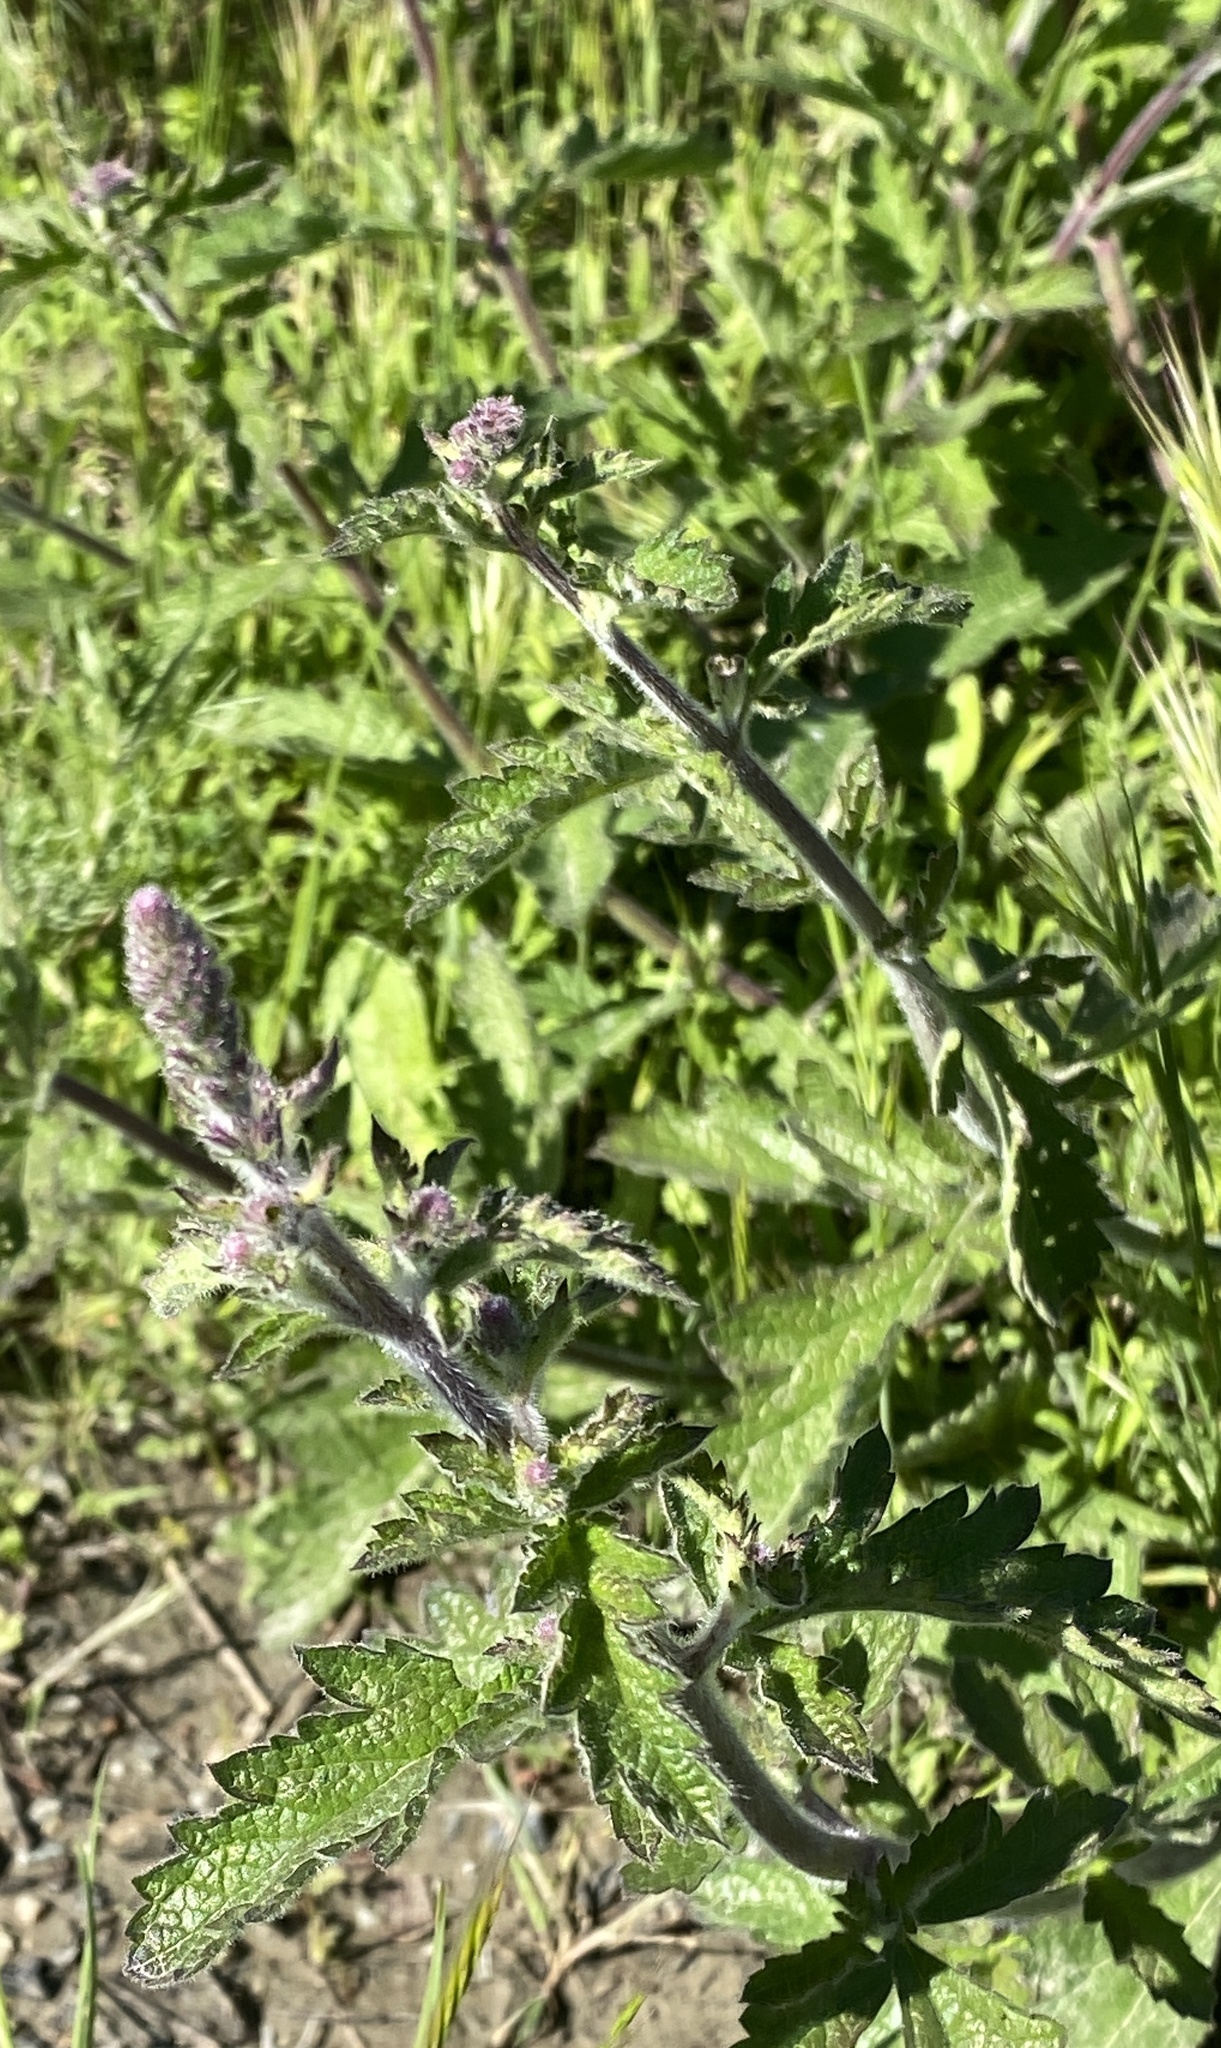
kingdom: Plantae
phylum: Tracheophyta
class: Magnoliopsida
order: Lamiales
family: Verbenaceae
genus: Verbena
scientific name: Verbena lasiostachys
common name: Vervain
